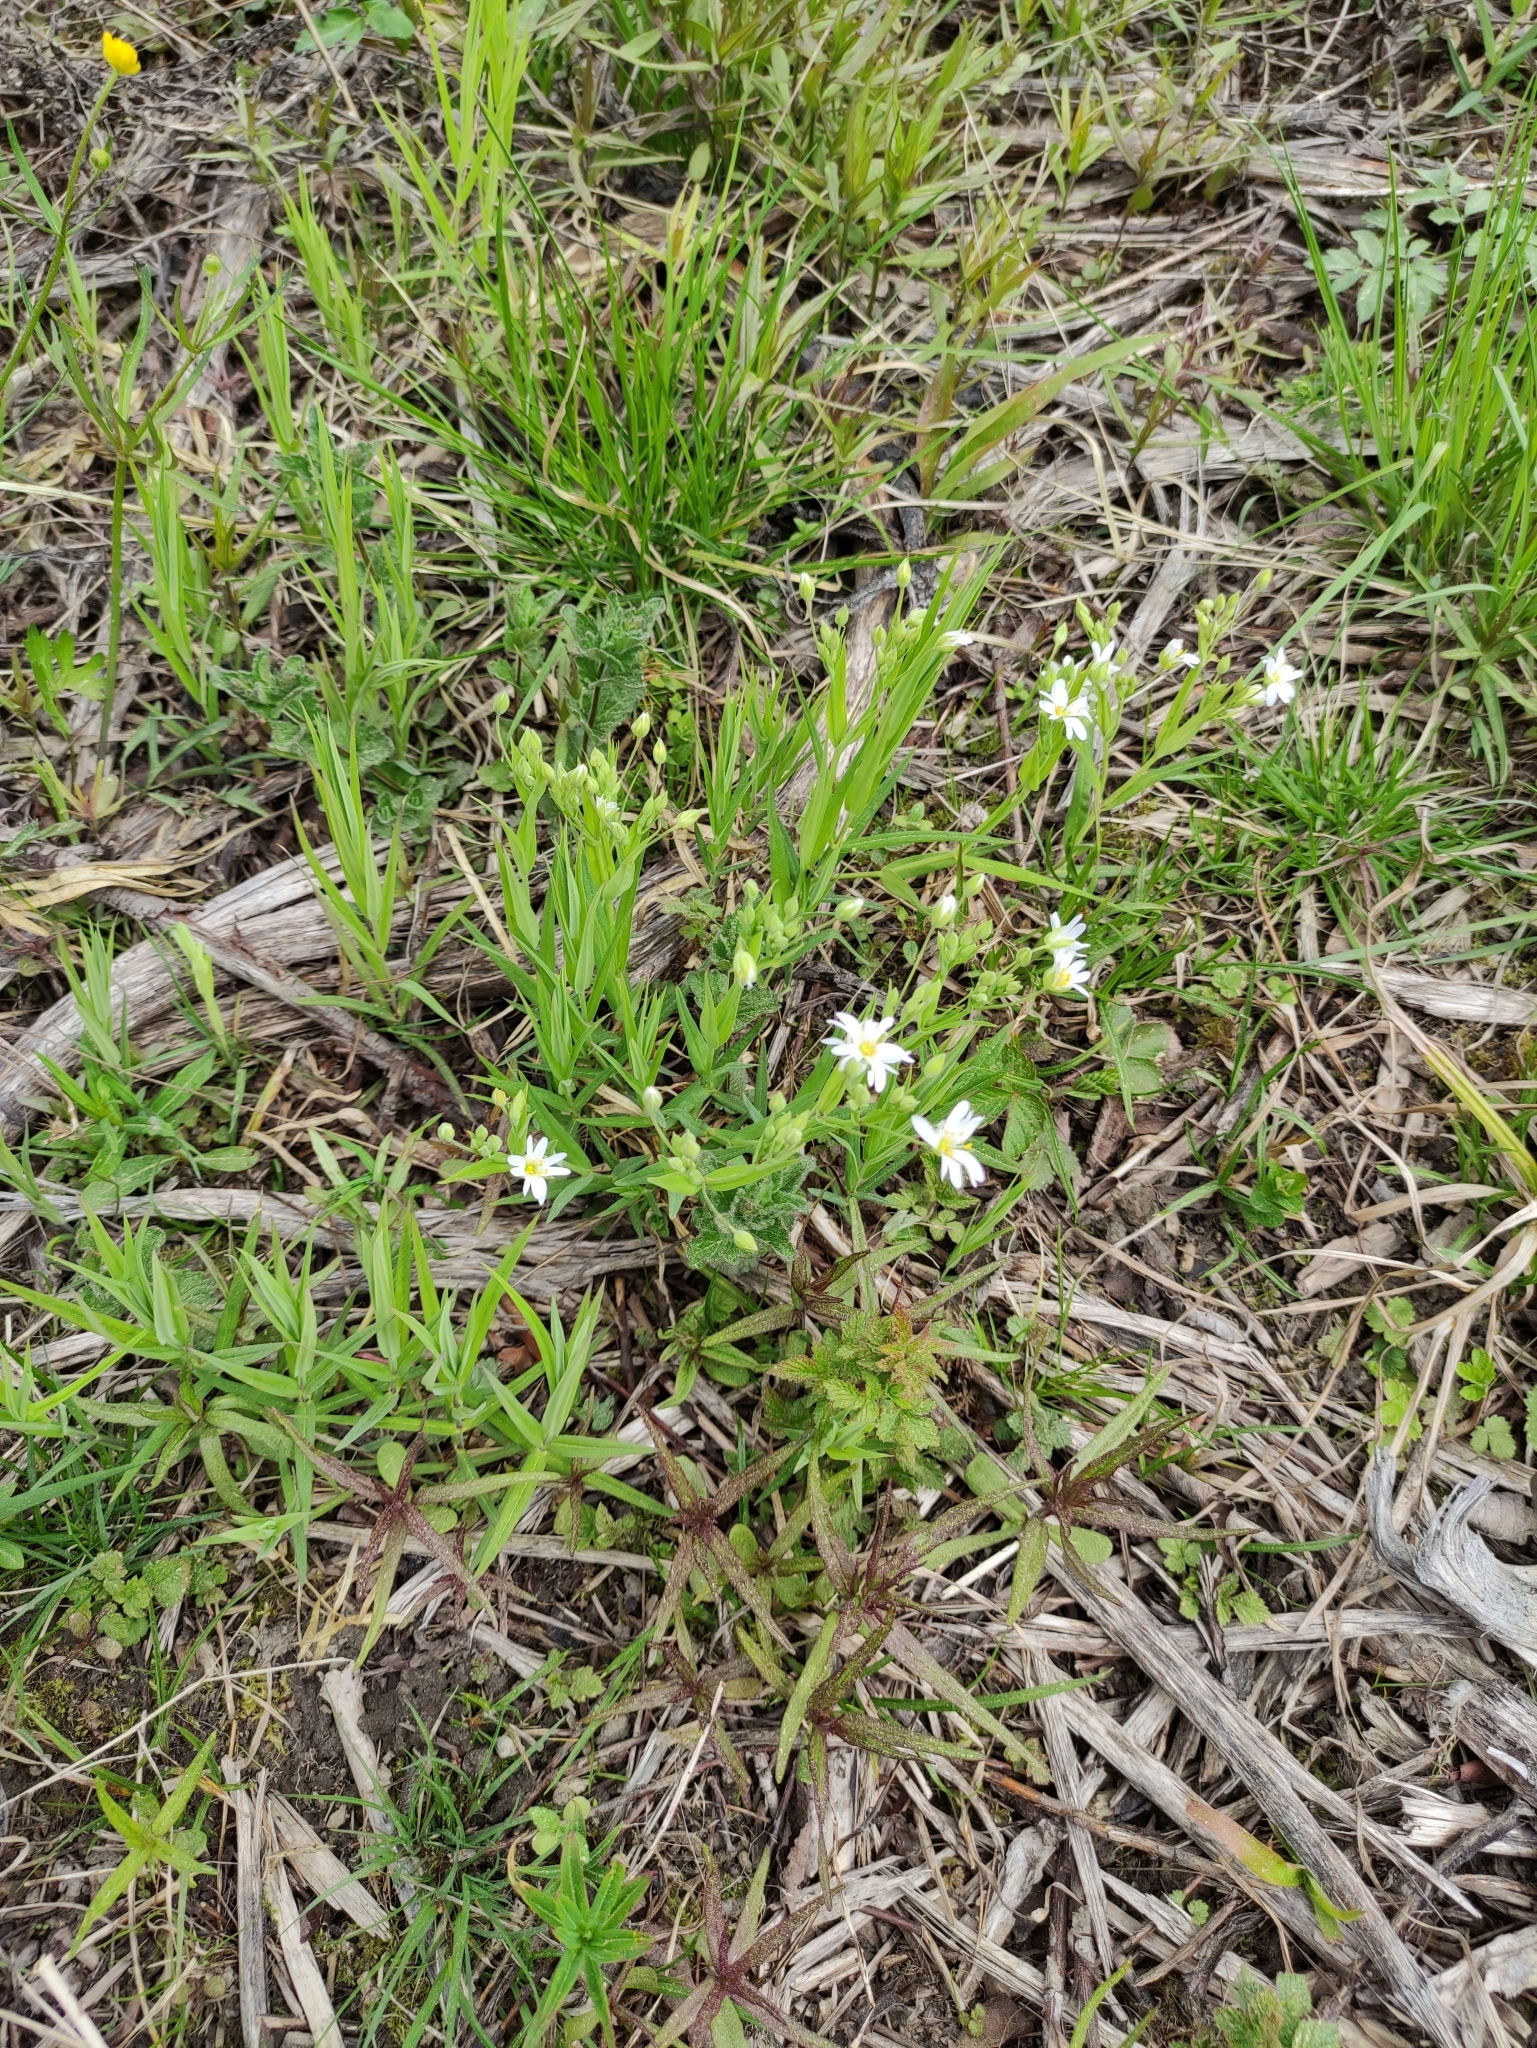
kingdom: Plantae
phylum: Tracheophyta
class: Magnoliopsida
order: Caryophyllales
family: Caryophyllaceae
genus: Rabelera
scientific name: Rabelera holostea
